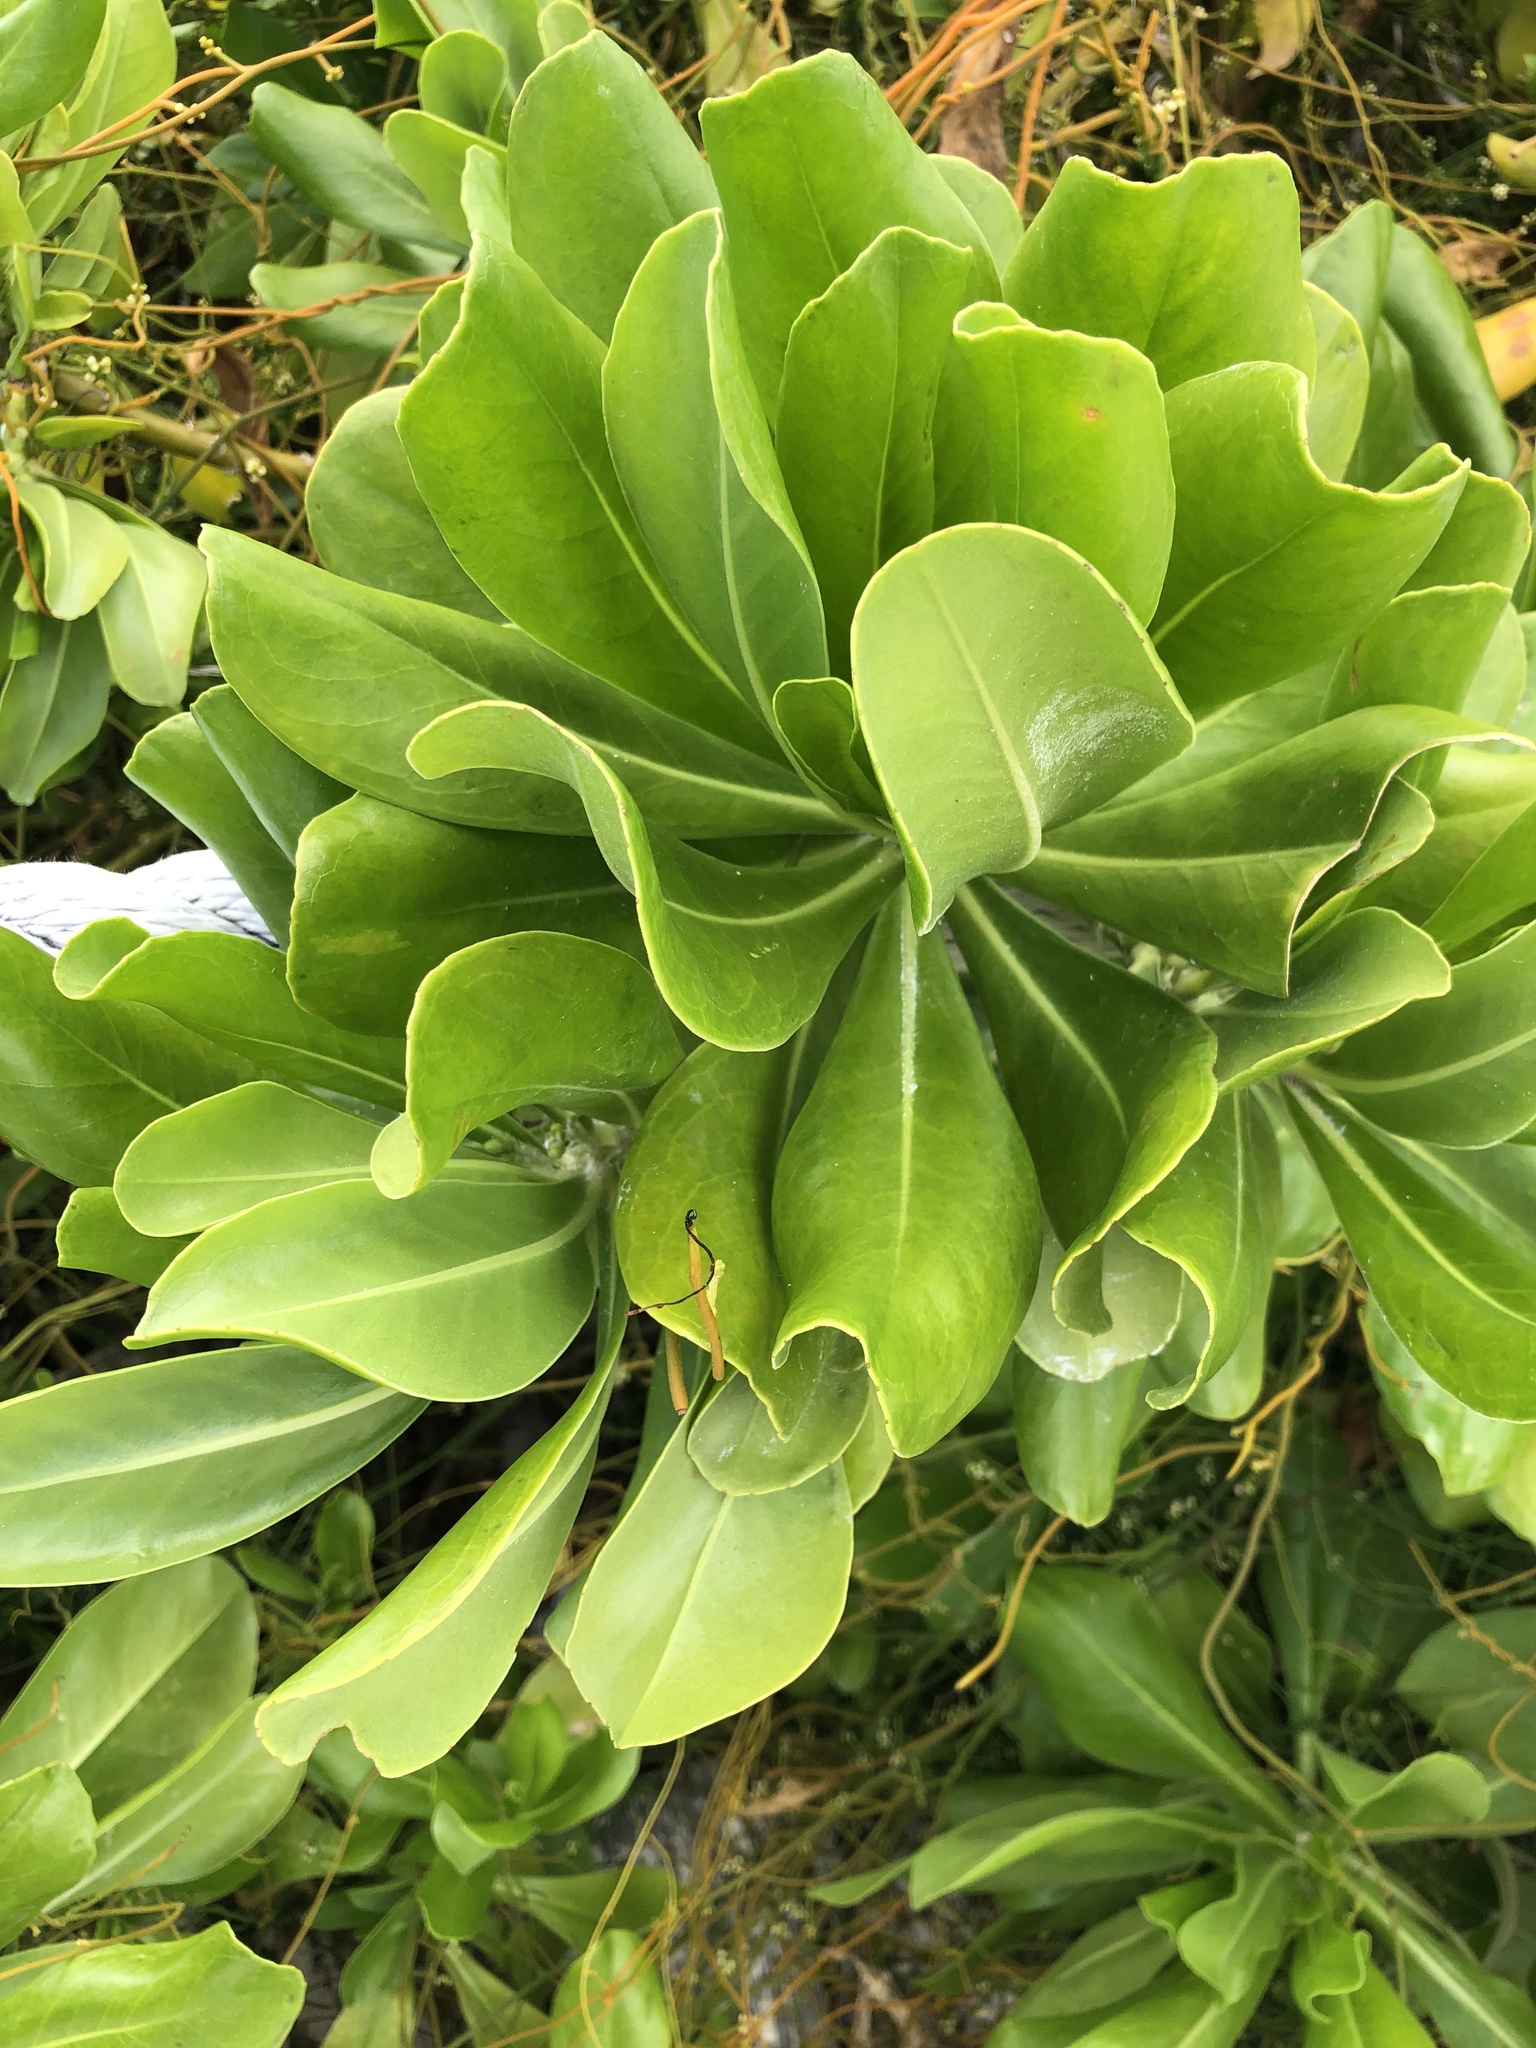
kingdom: Plantae
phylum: Tracheophyta
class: Magnoliopsida
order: Asterales
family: Goodeniaceae
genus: Scaevola
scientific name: Scaevola taccada
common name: Sea lettucetree
